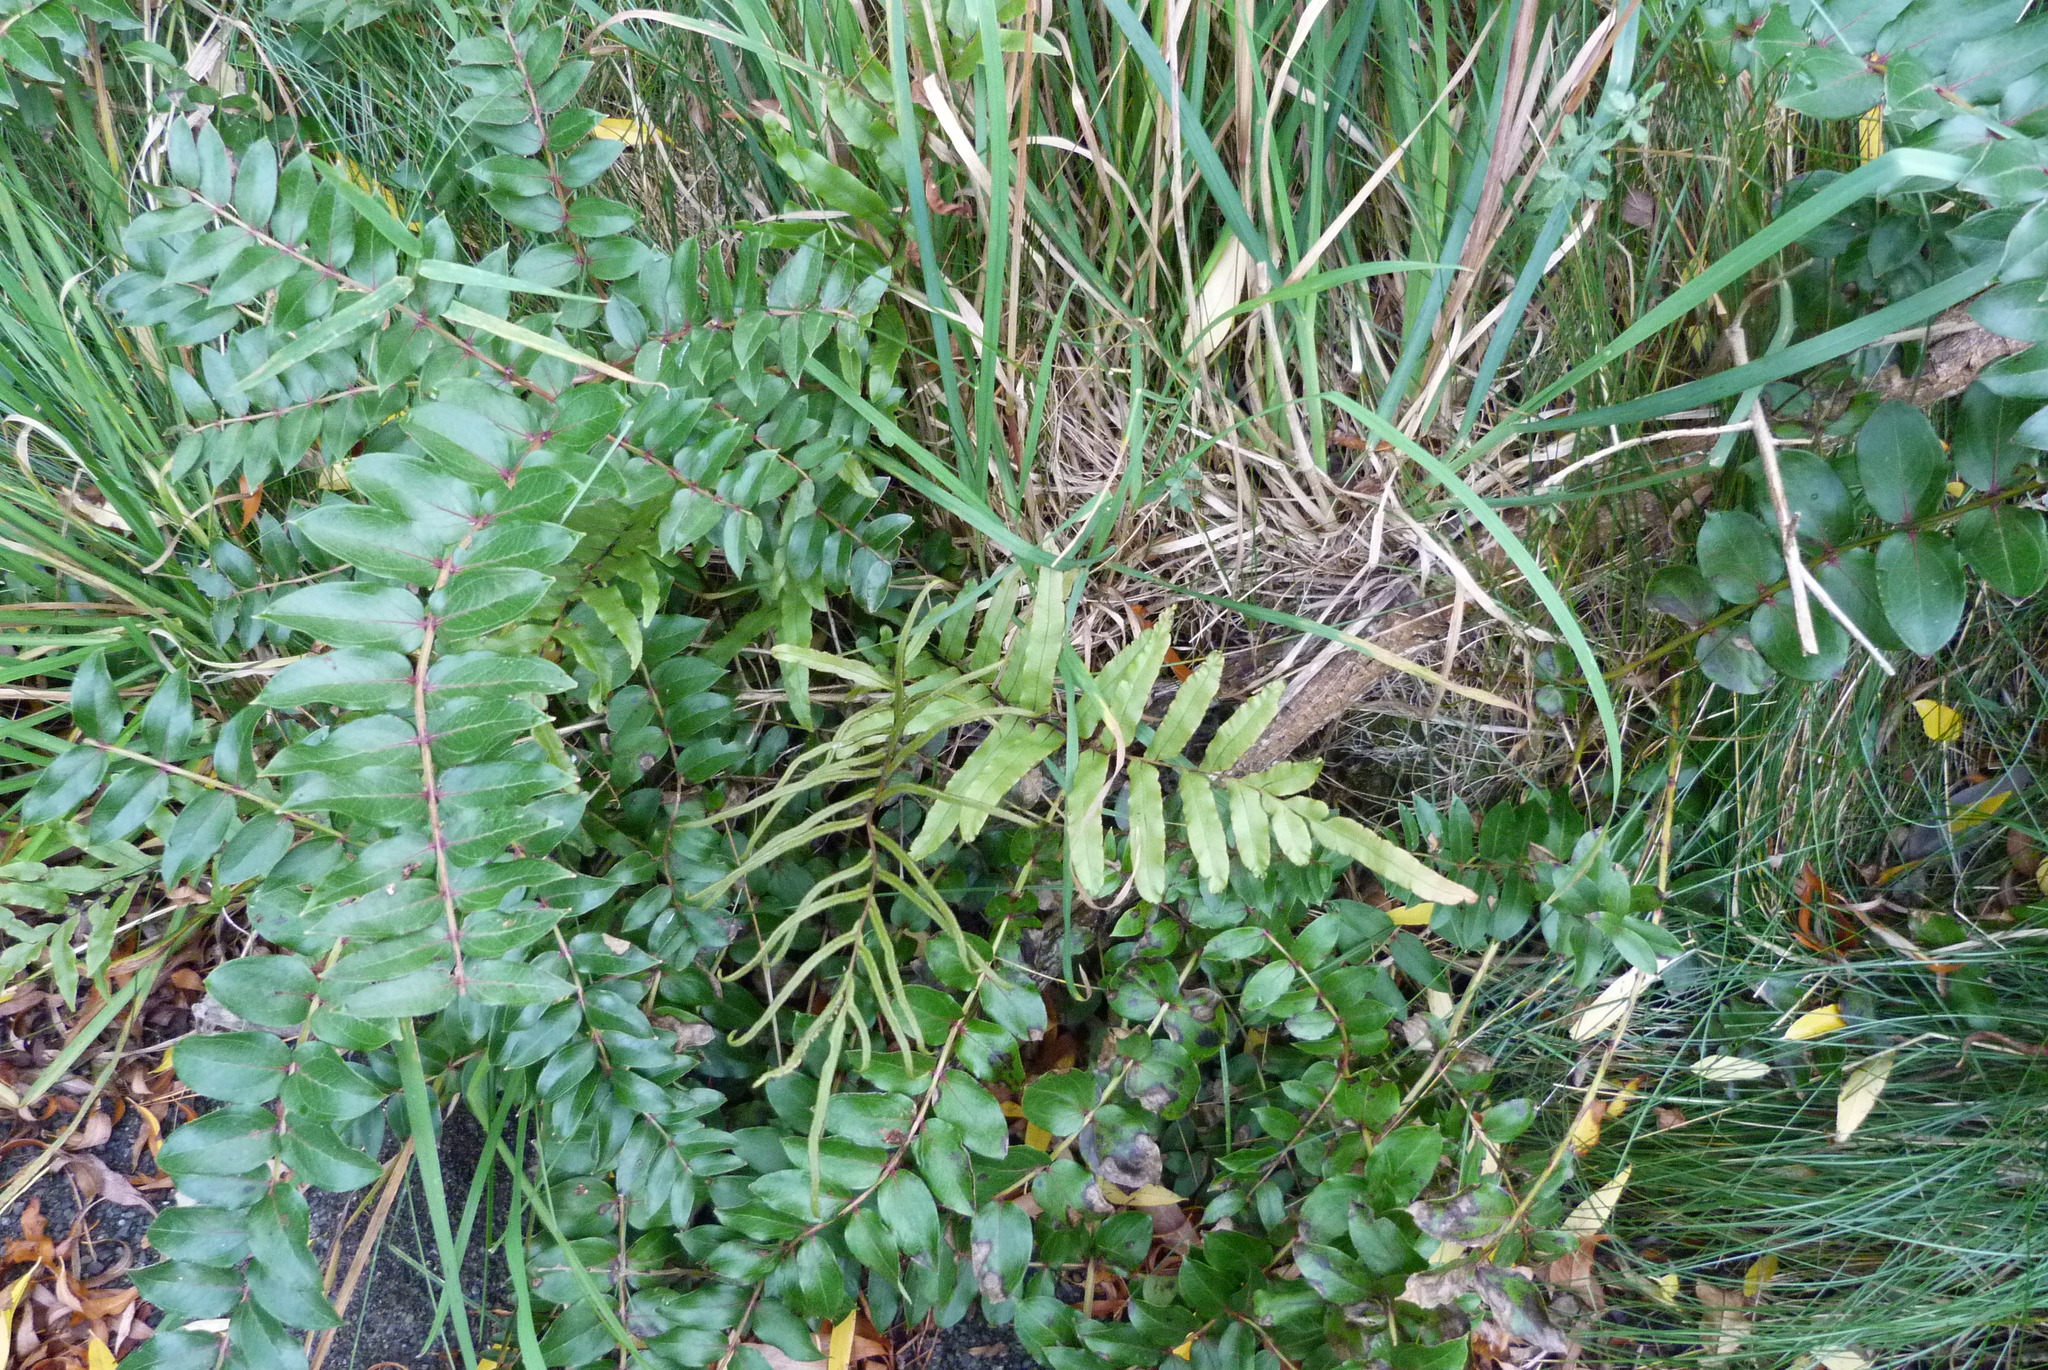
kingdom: Plantae
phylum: Tracheophyta
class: Polypodiopsida
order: Polypodiales
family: Blechnaceae
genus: Parablechnum
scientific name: Parablechnum minus
